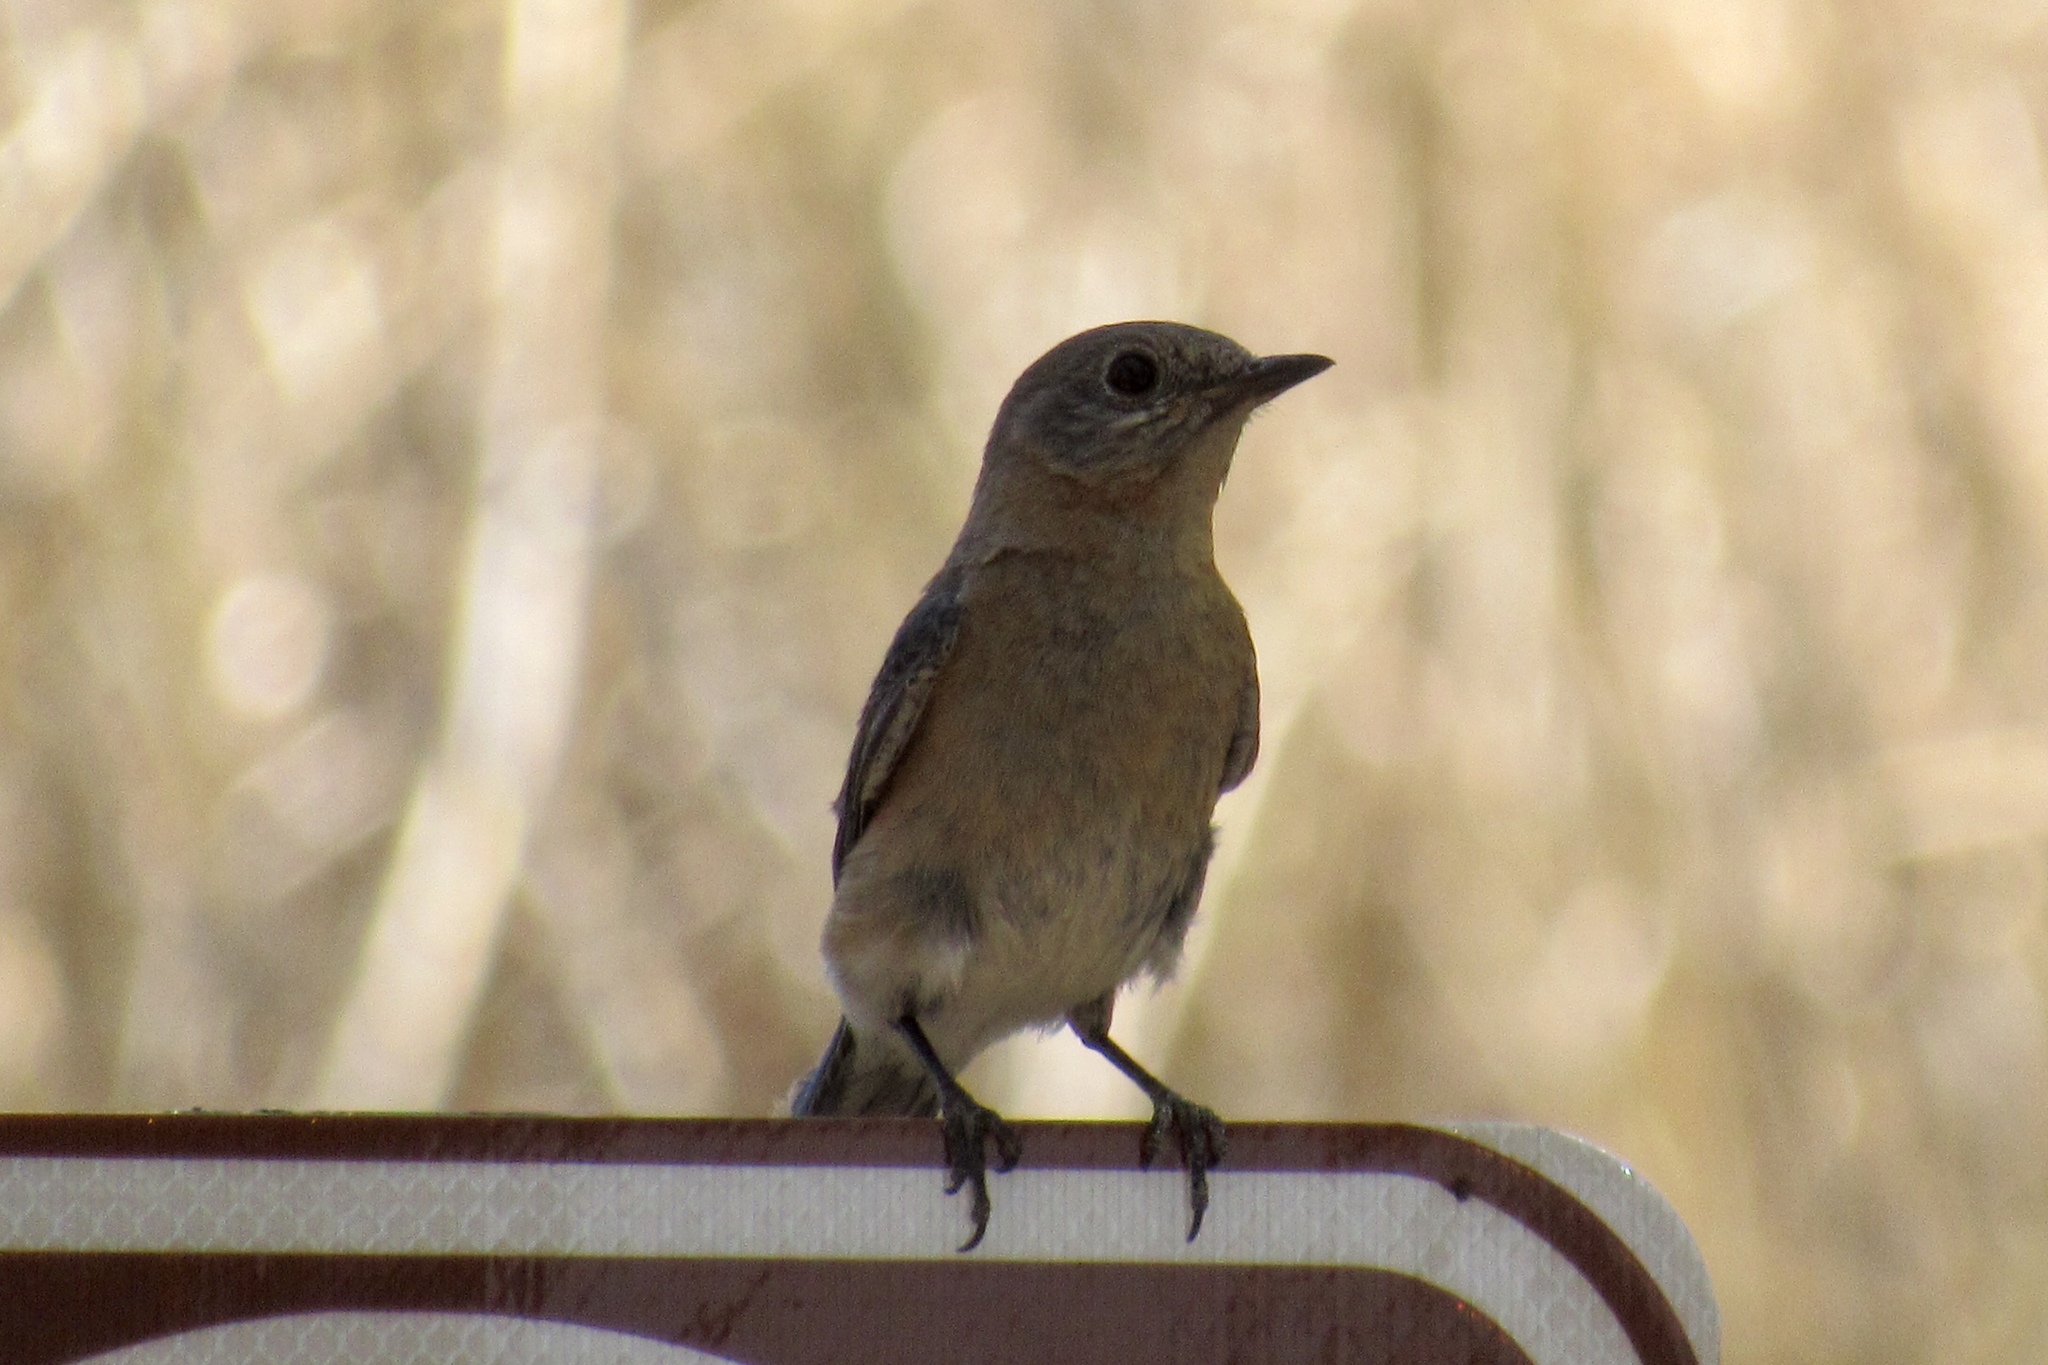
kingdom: Animalia
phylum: Chordata
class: Aves
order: Passeriformes
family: Turdidae
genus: Sialia
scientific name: Sialia mexicana
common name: Western bluebird
